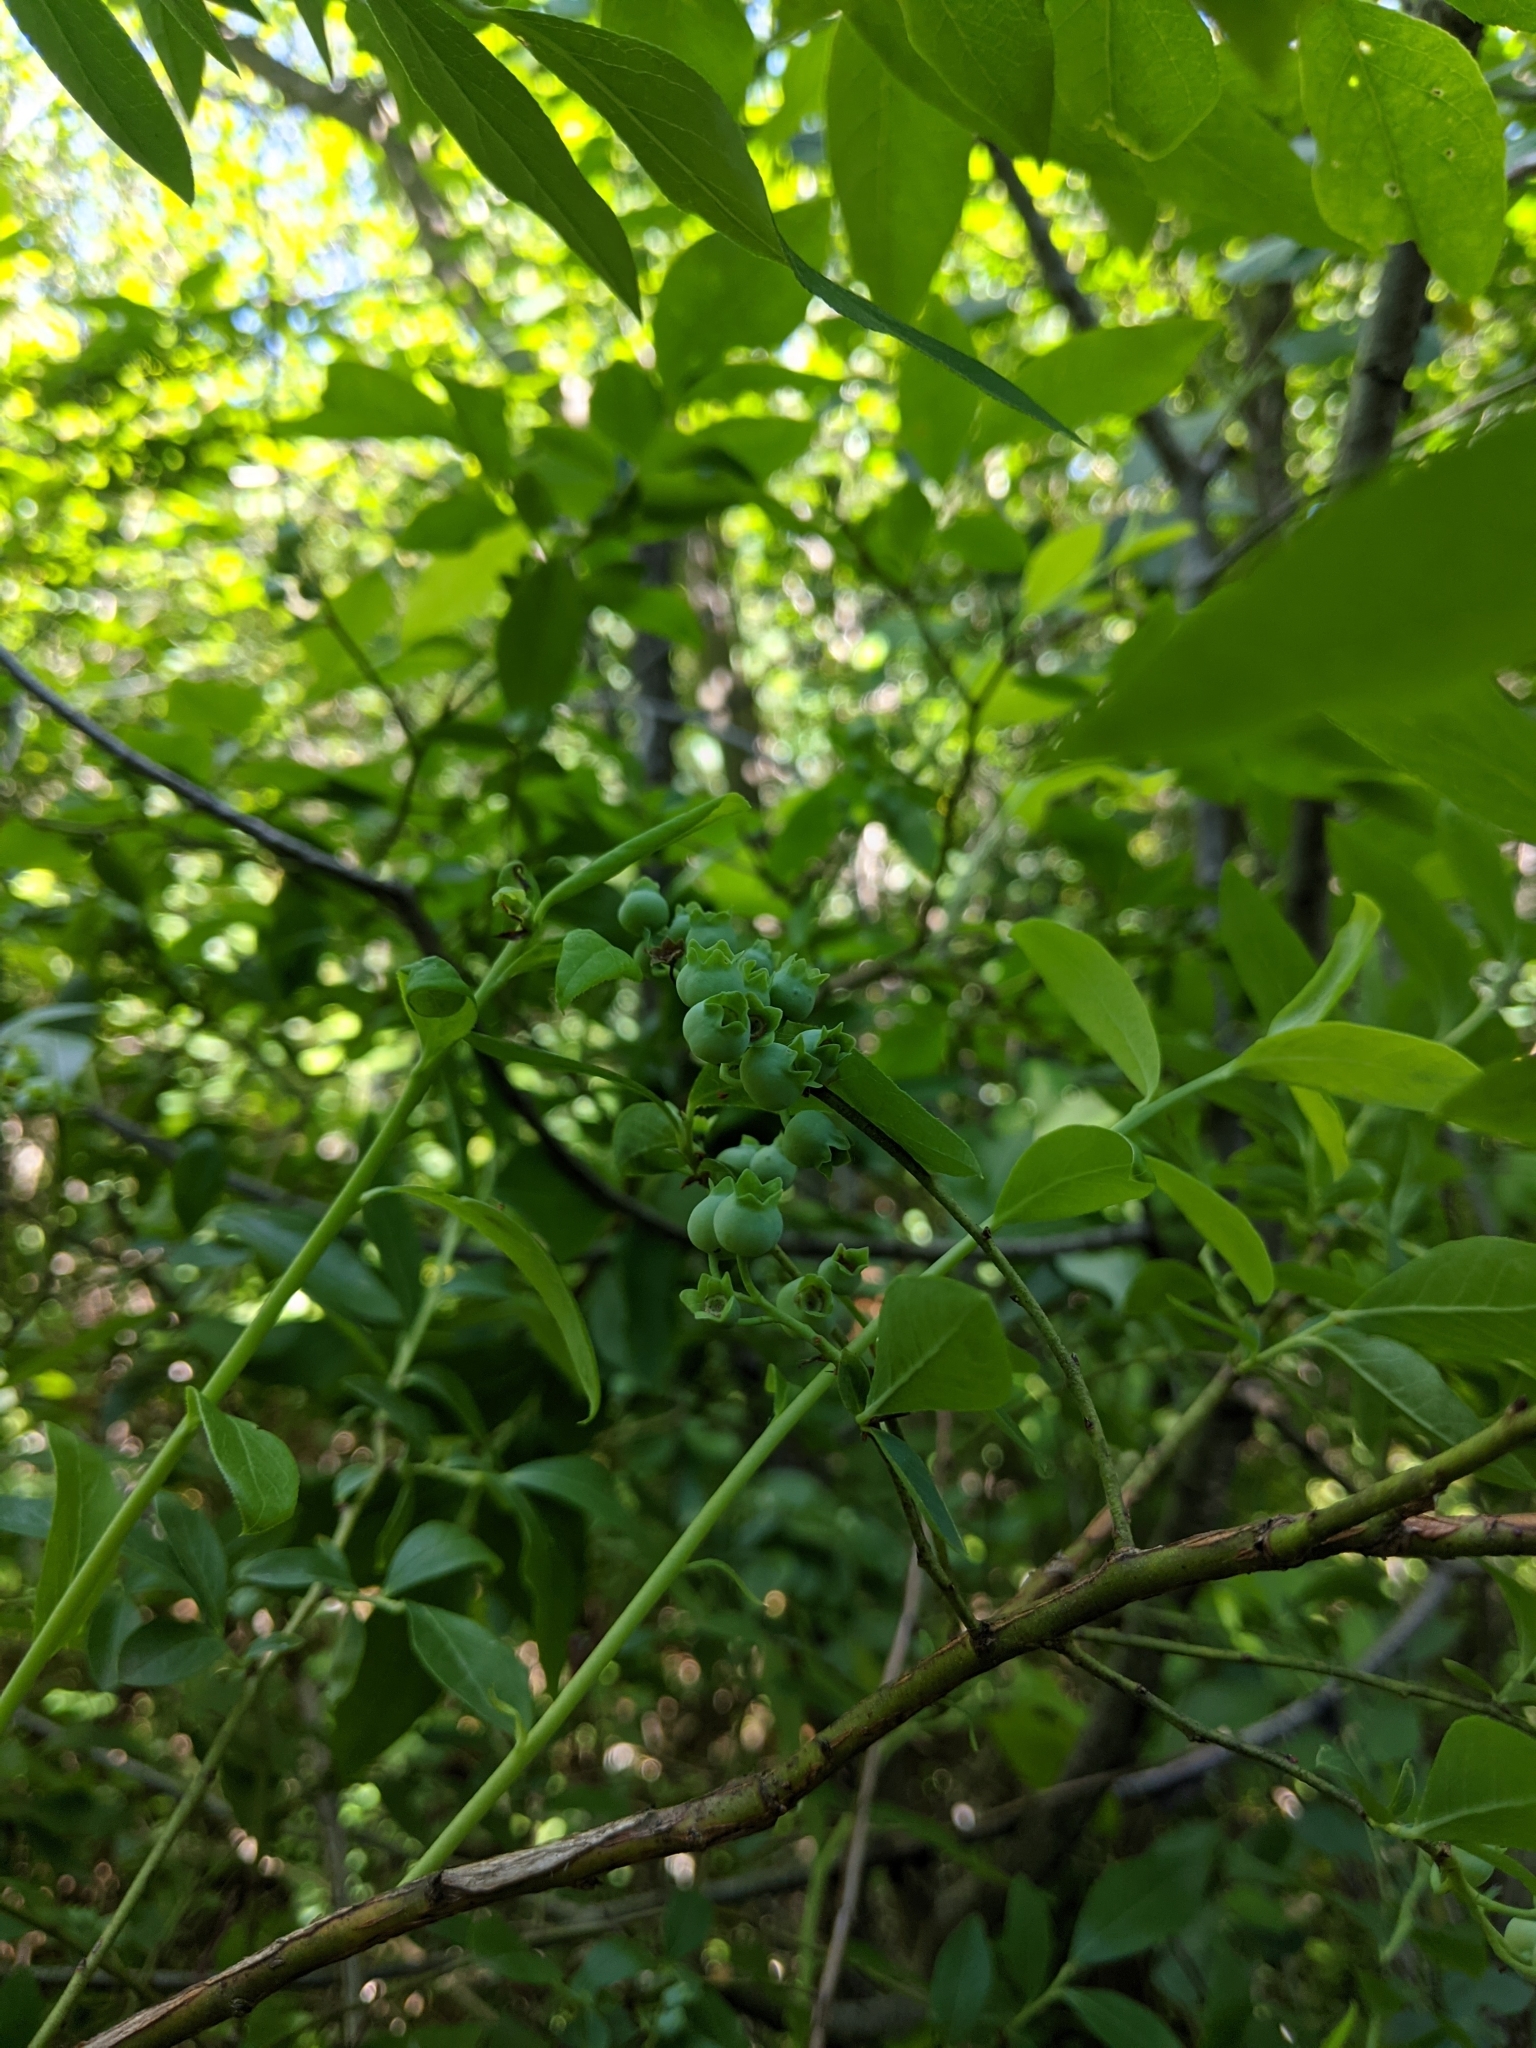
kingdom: Plantae
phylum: Tracheophyta
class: Magnoliopsida
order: Ericales
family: Ericaceae
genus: Vaccinium
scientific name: Vaccinium corymbosum
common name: Blueberry
